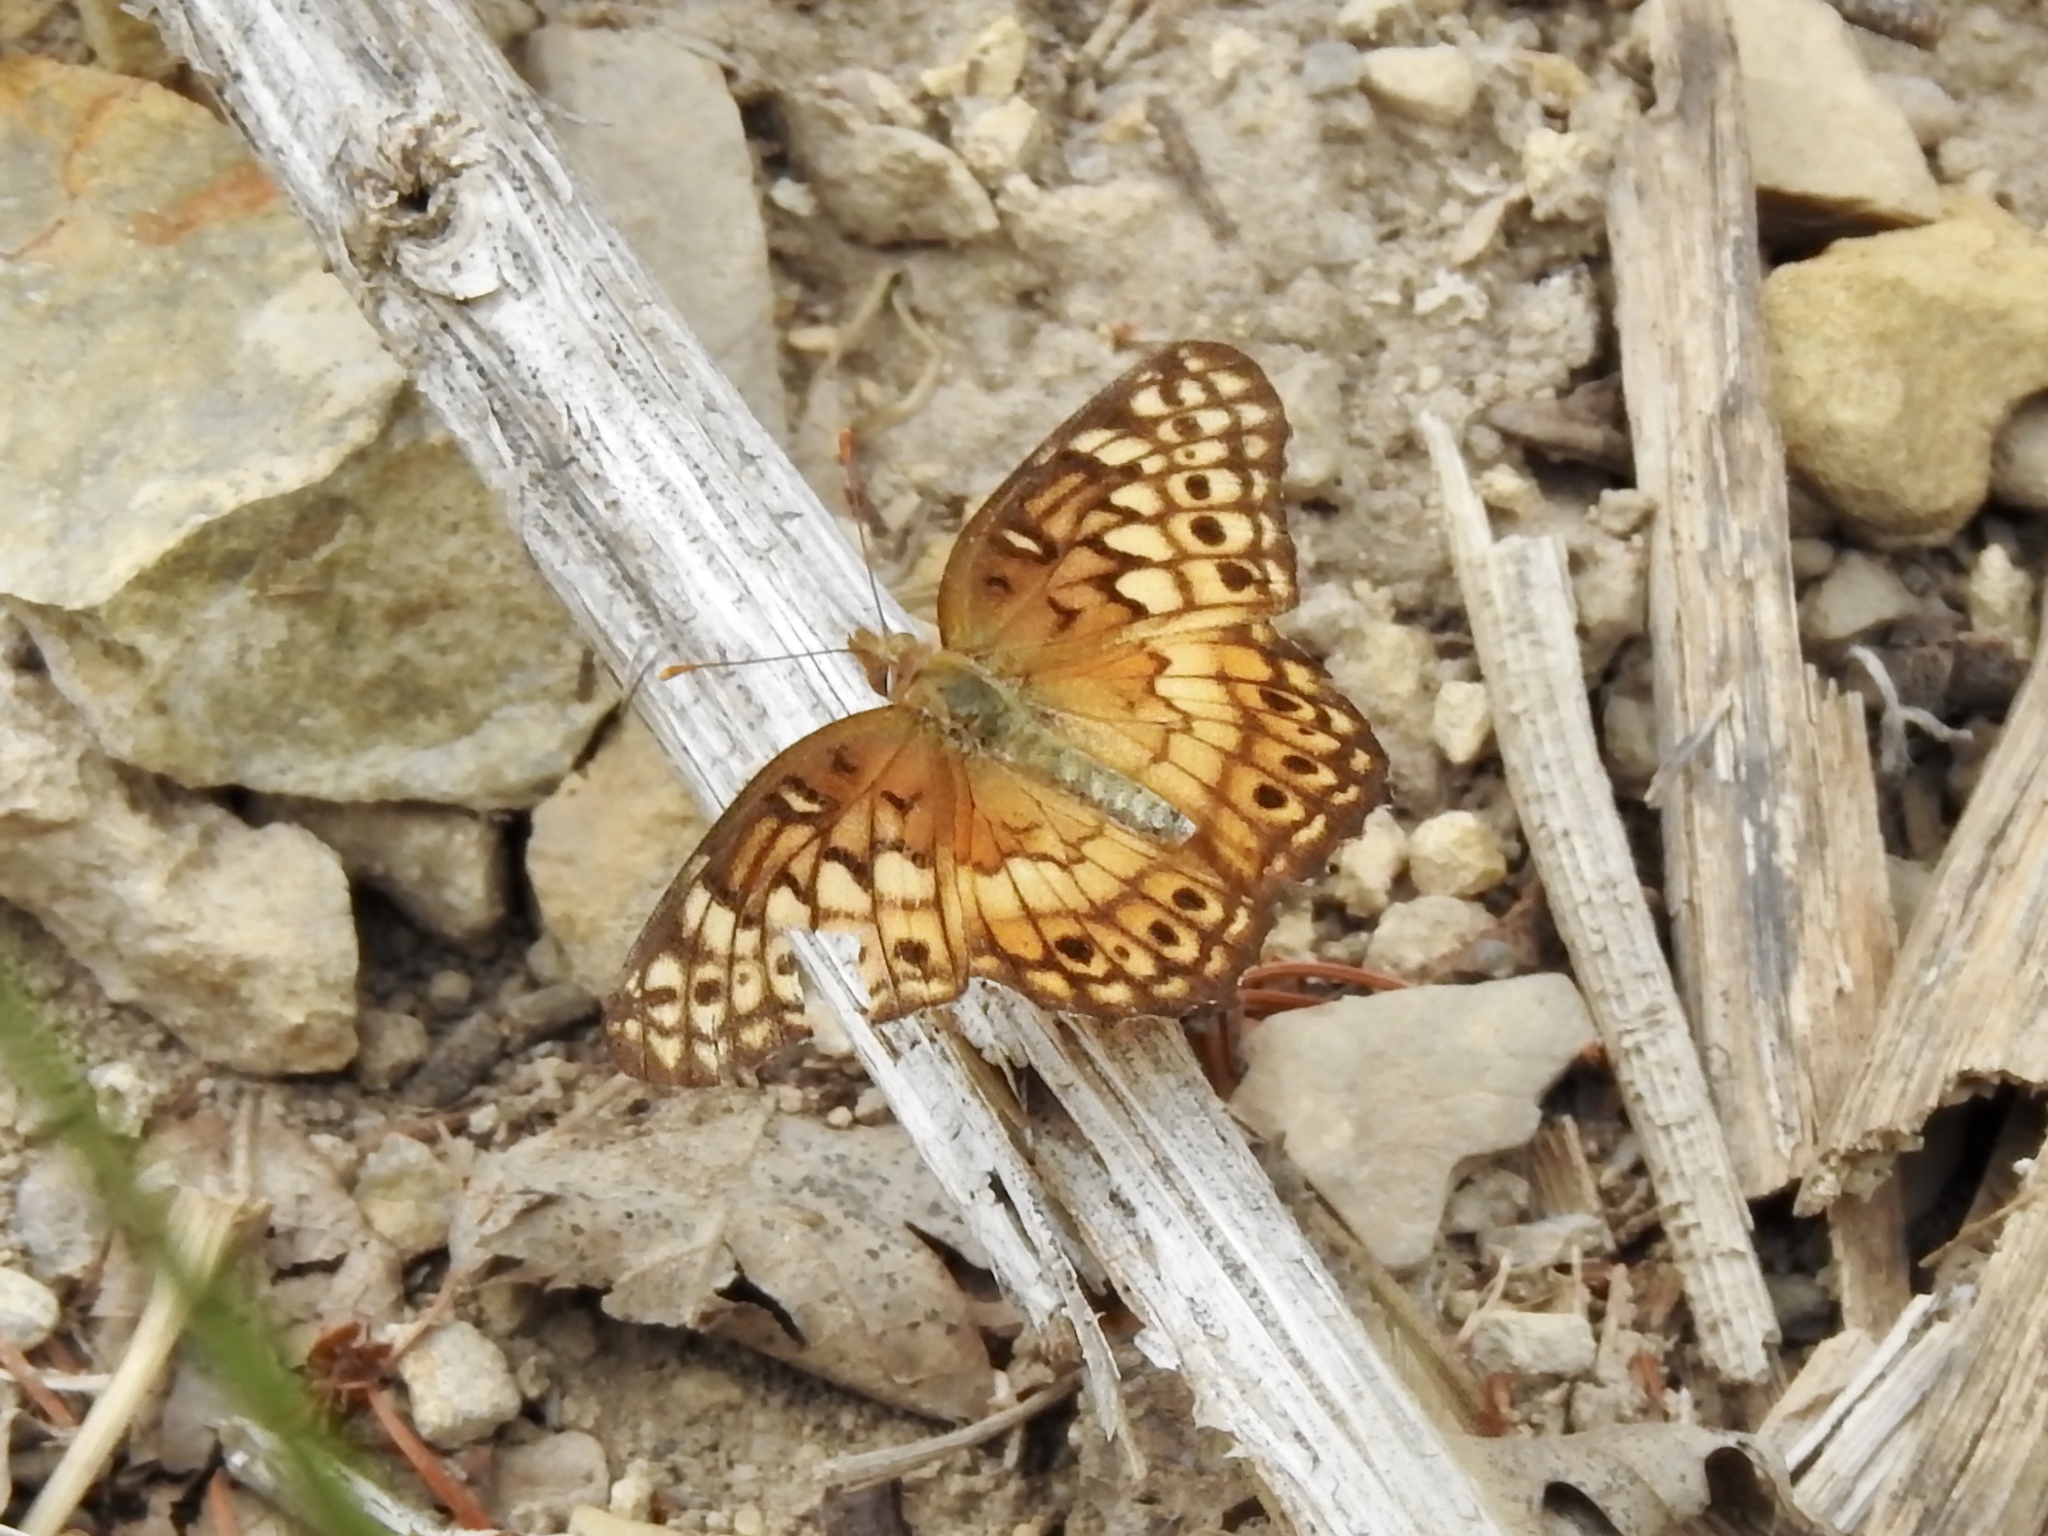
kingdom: Animalia
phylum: Arthropoda
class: Insecta
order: Lepidoptera
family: Nymphalidae
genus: Euptoieta
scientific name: Euptoieta claudia
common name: Variegated fritillary
